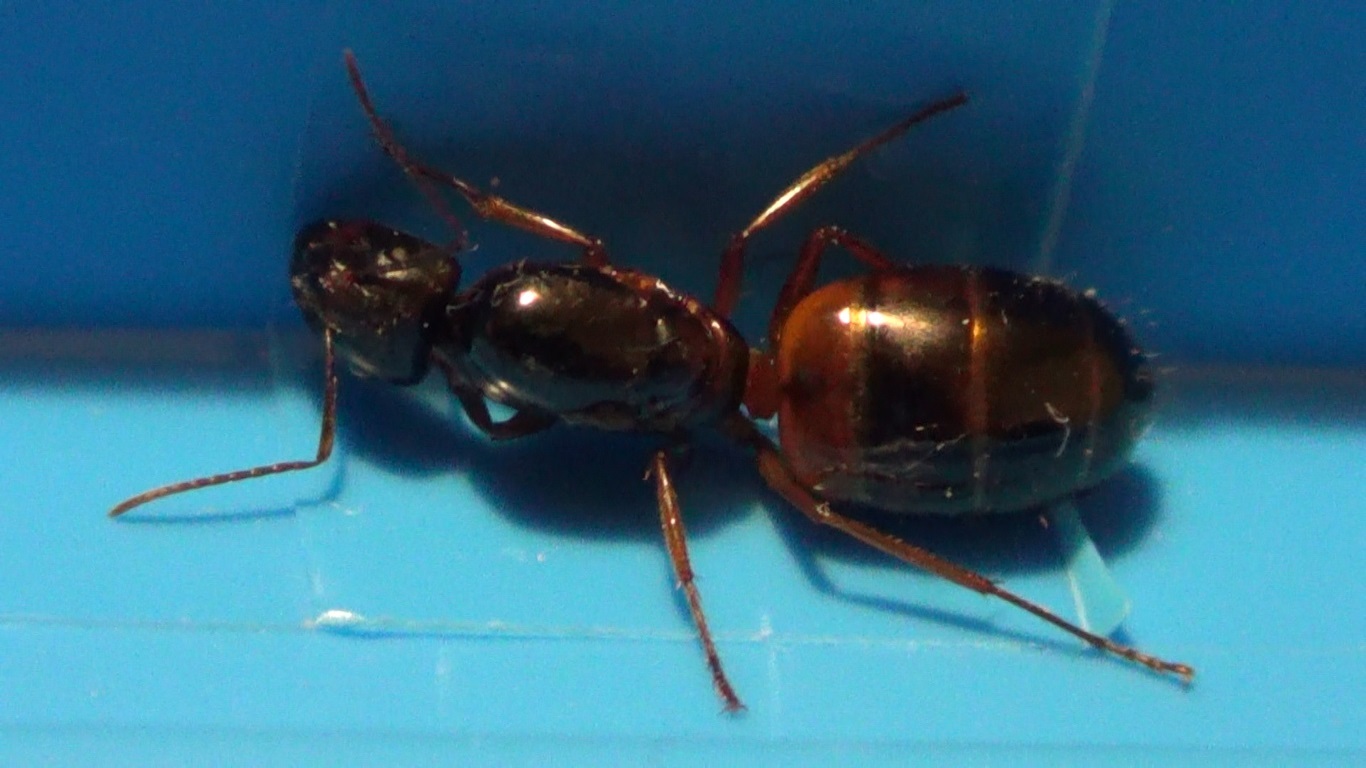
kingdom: Animalia
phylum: Arthropoda
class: Insecta
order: Hymenoptera
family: Formicidae
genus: Camponotus
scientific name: Camponotus nylanderi
